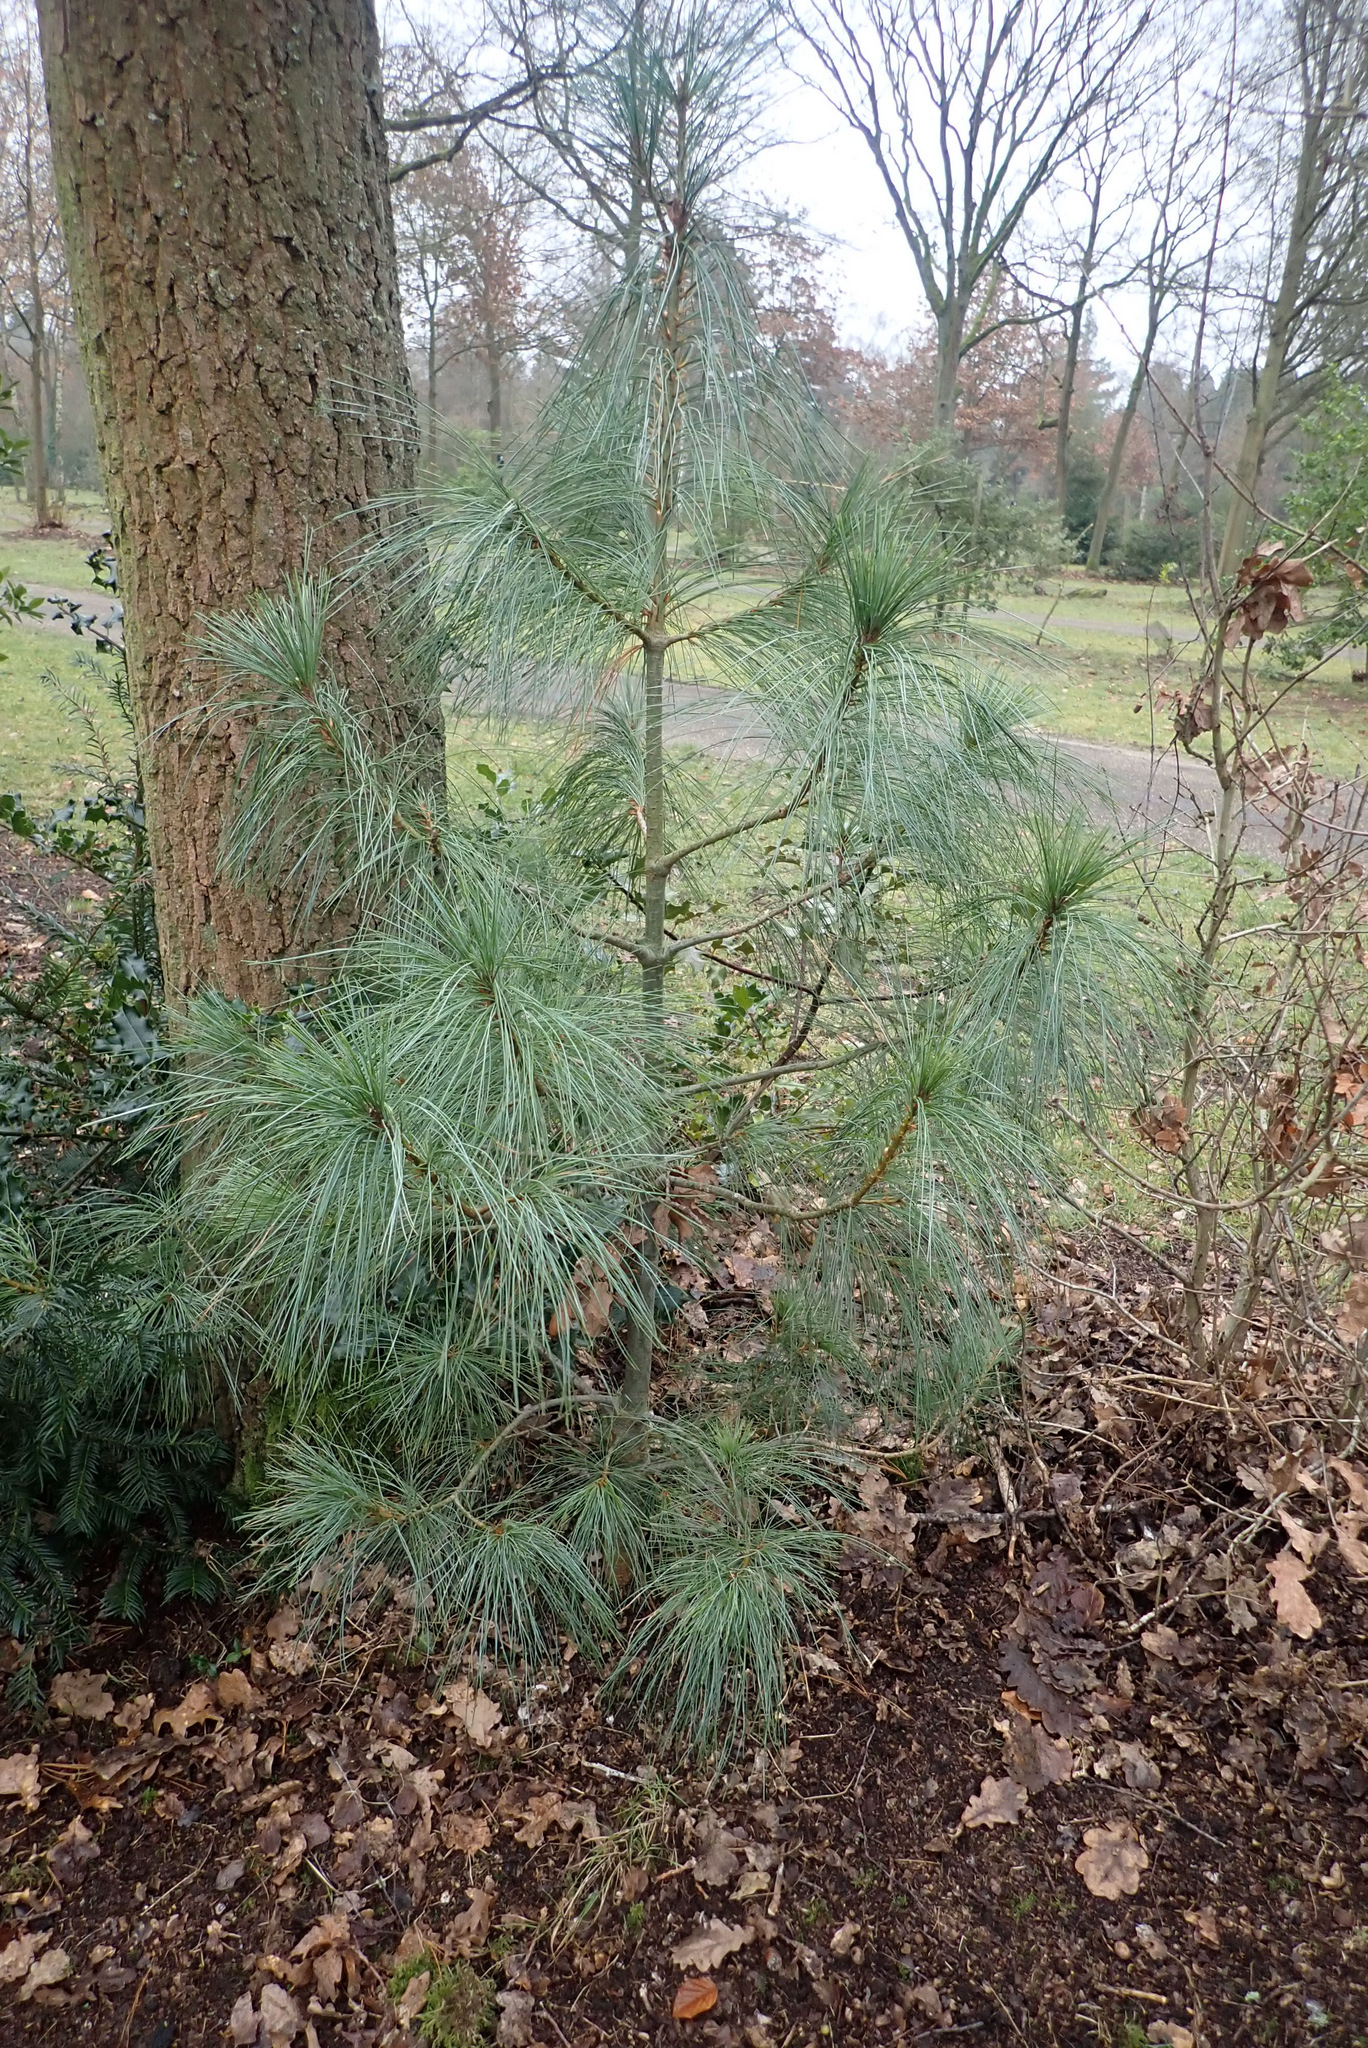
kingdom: Plantae
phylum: Tracheophyta
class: Pinopsida
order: Pinales
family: Pinaceae
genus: Pinus
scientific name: Pinus strobus
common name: Weymouth pine
